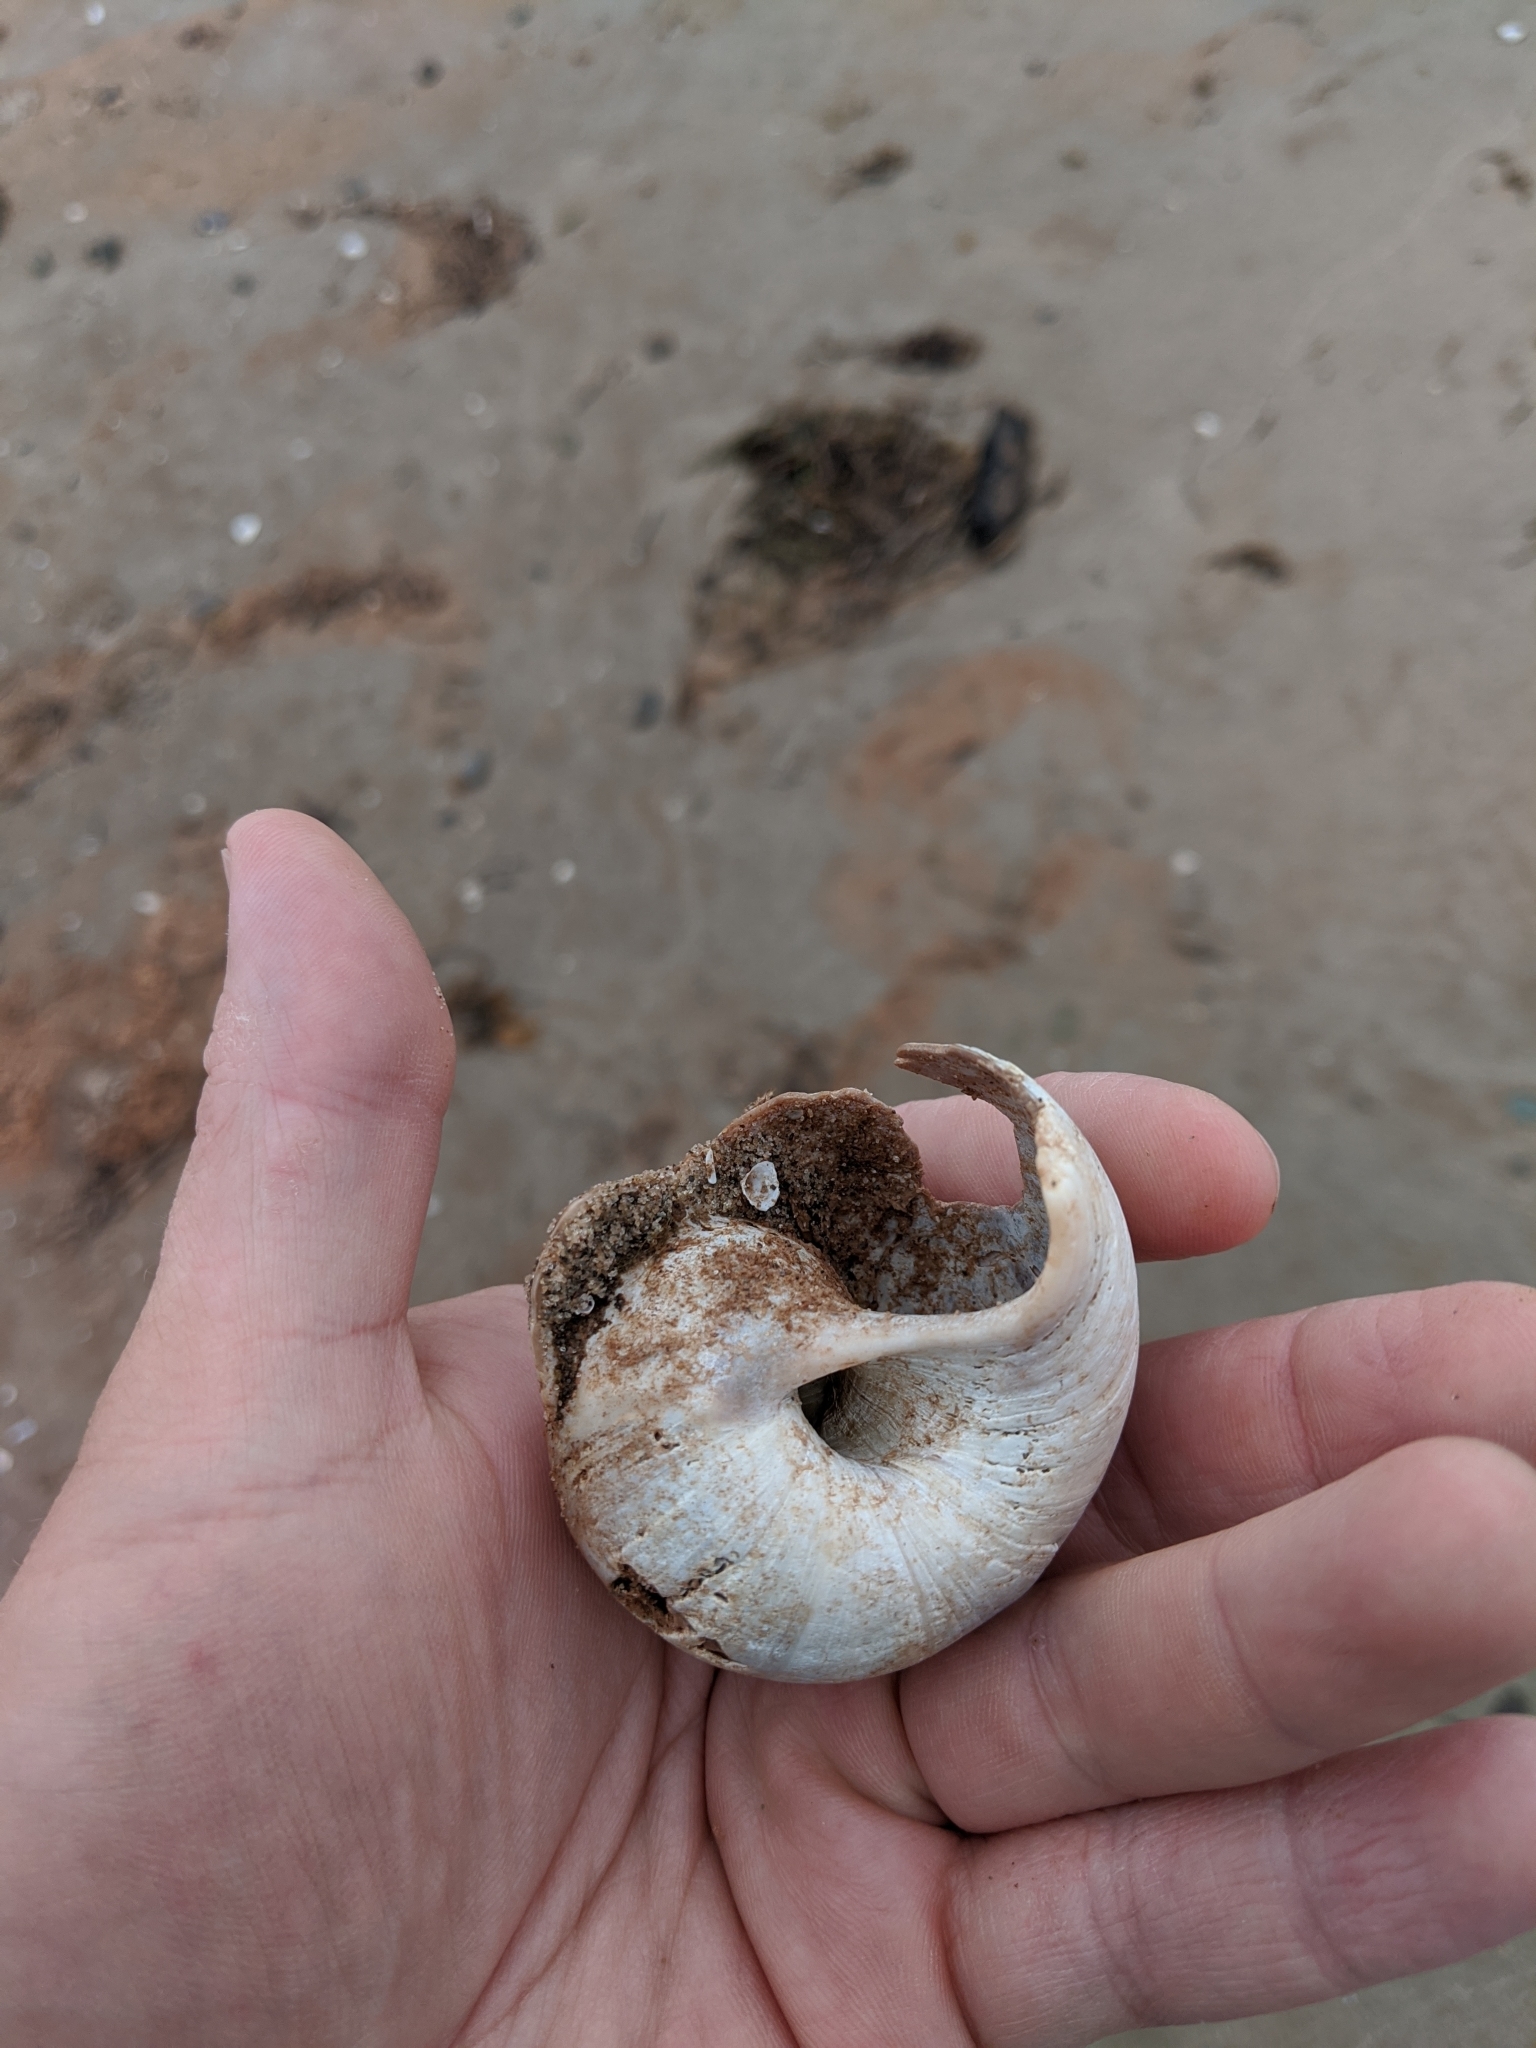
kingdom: Animalia
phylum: Mollusca
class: Gastropoda
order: Littorinimorpha
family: Naticidae
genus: Euspira
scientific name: Euspira heros
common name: Common northern moonsnail
